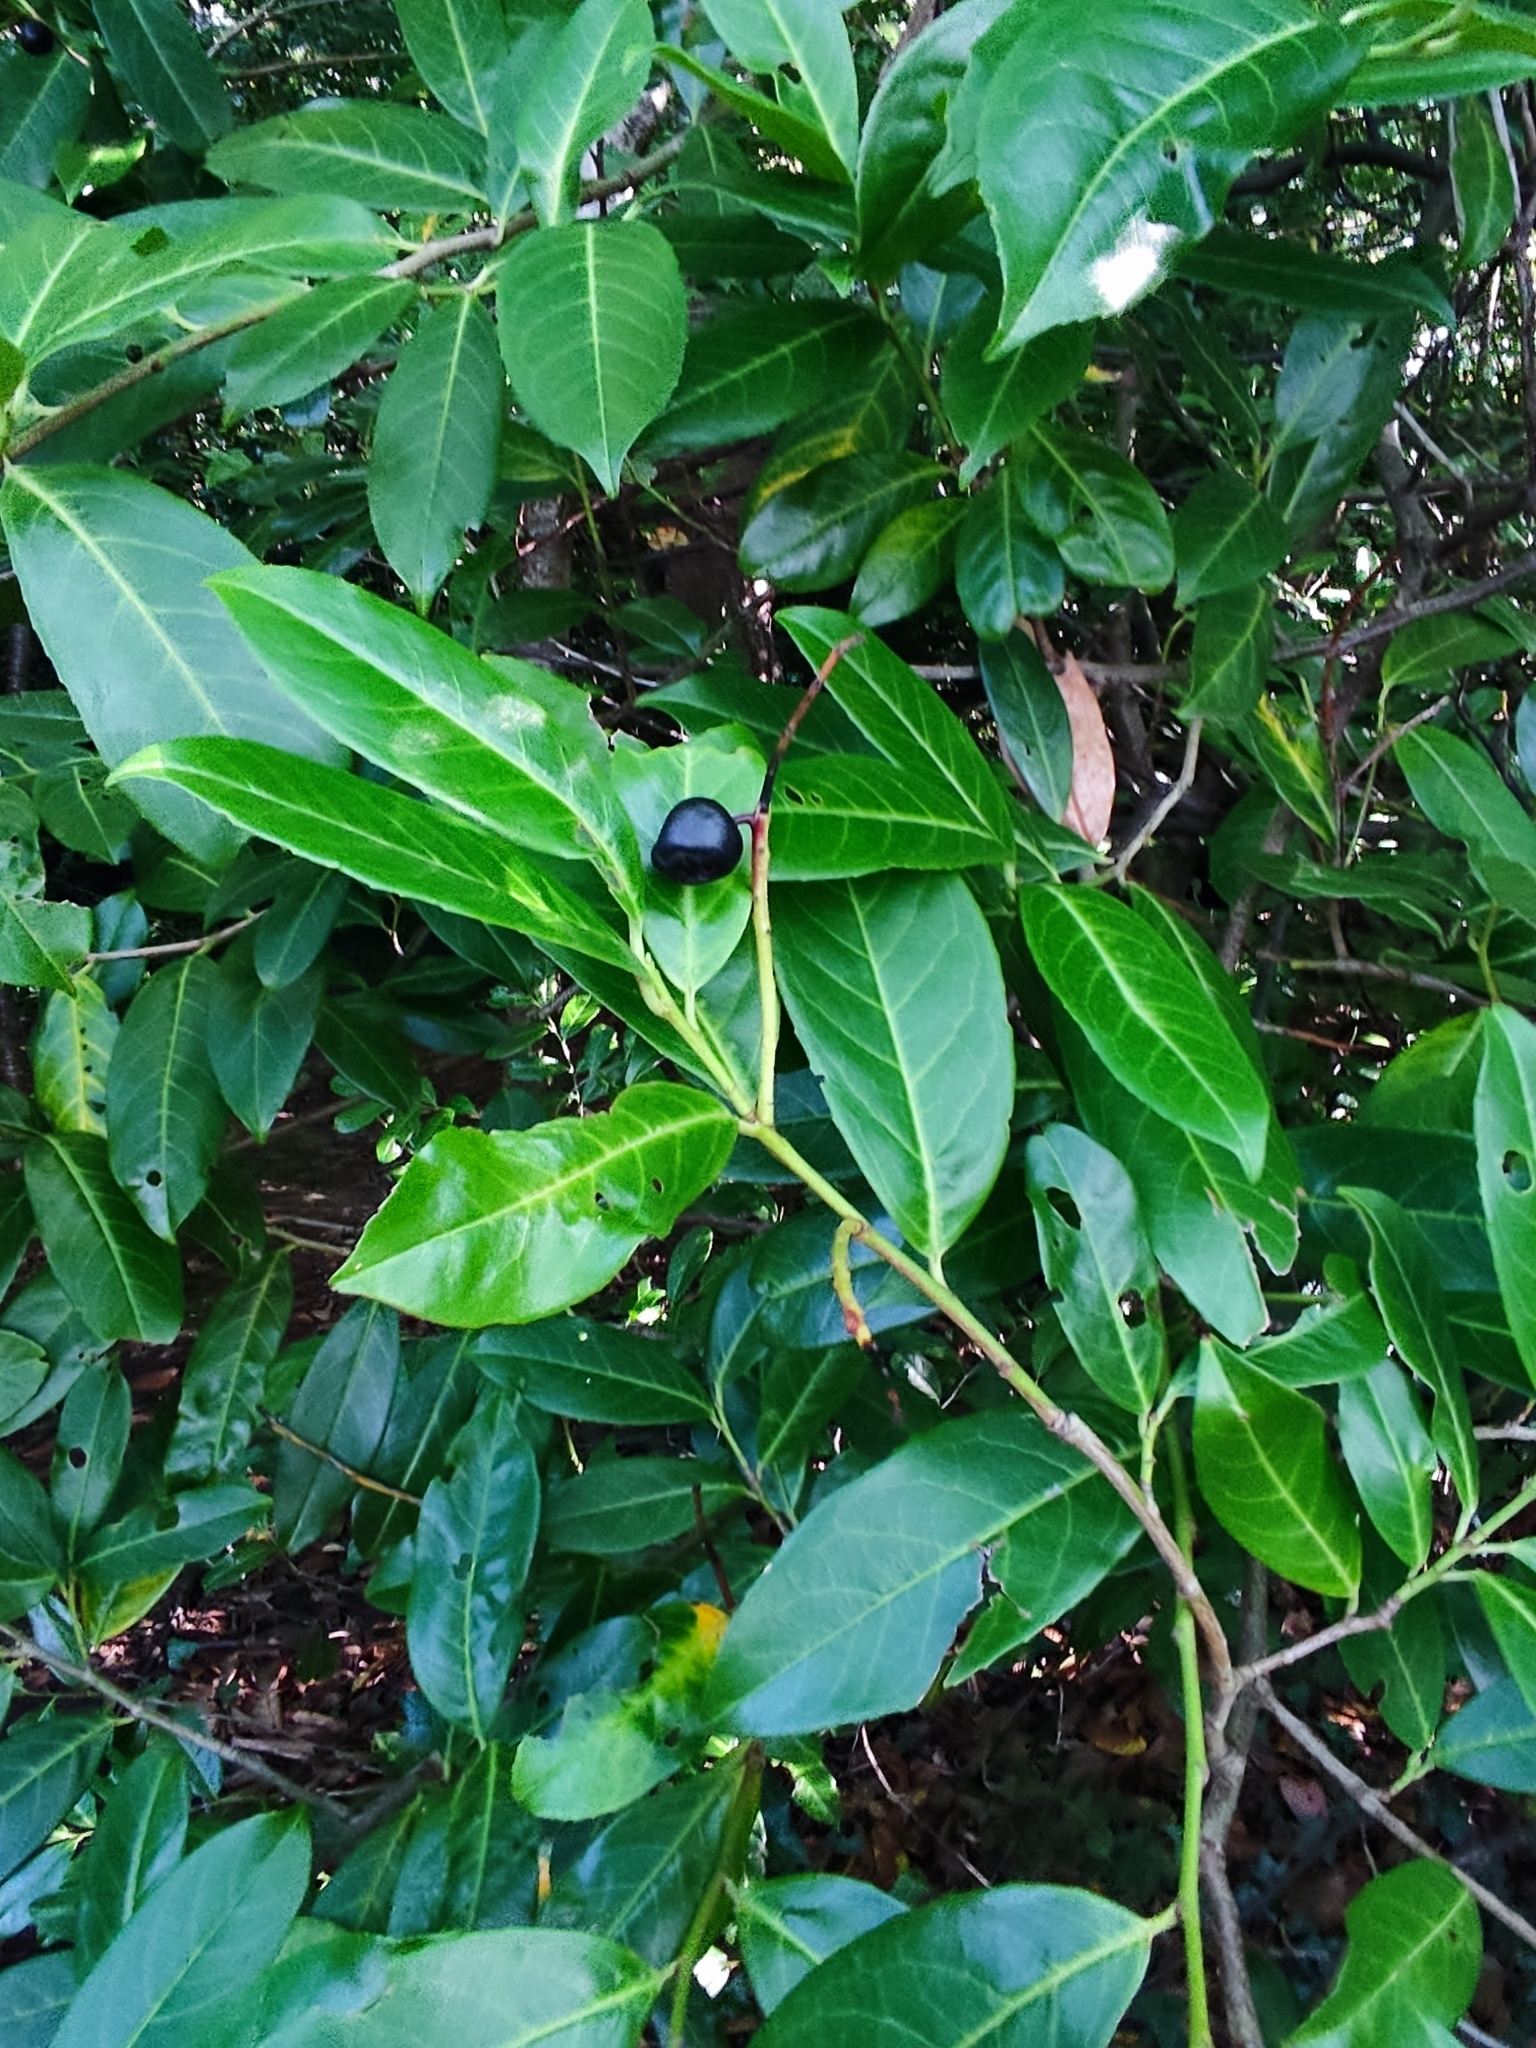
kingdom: Plantae
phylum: Tracheophyta
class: Magnoliopsida
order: Rosales
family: Rosaceae
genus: Prunus
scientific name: Prunus laurocerasus
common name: Cherry laurel
